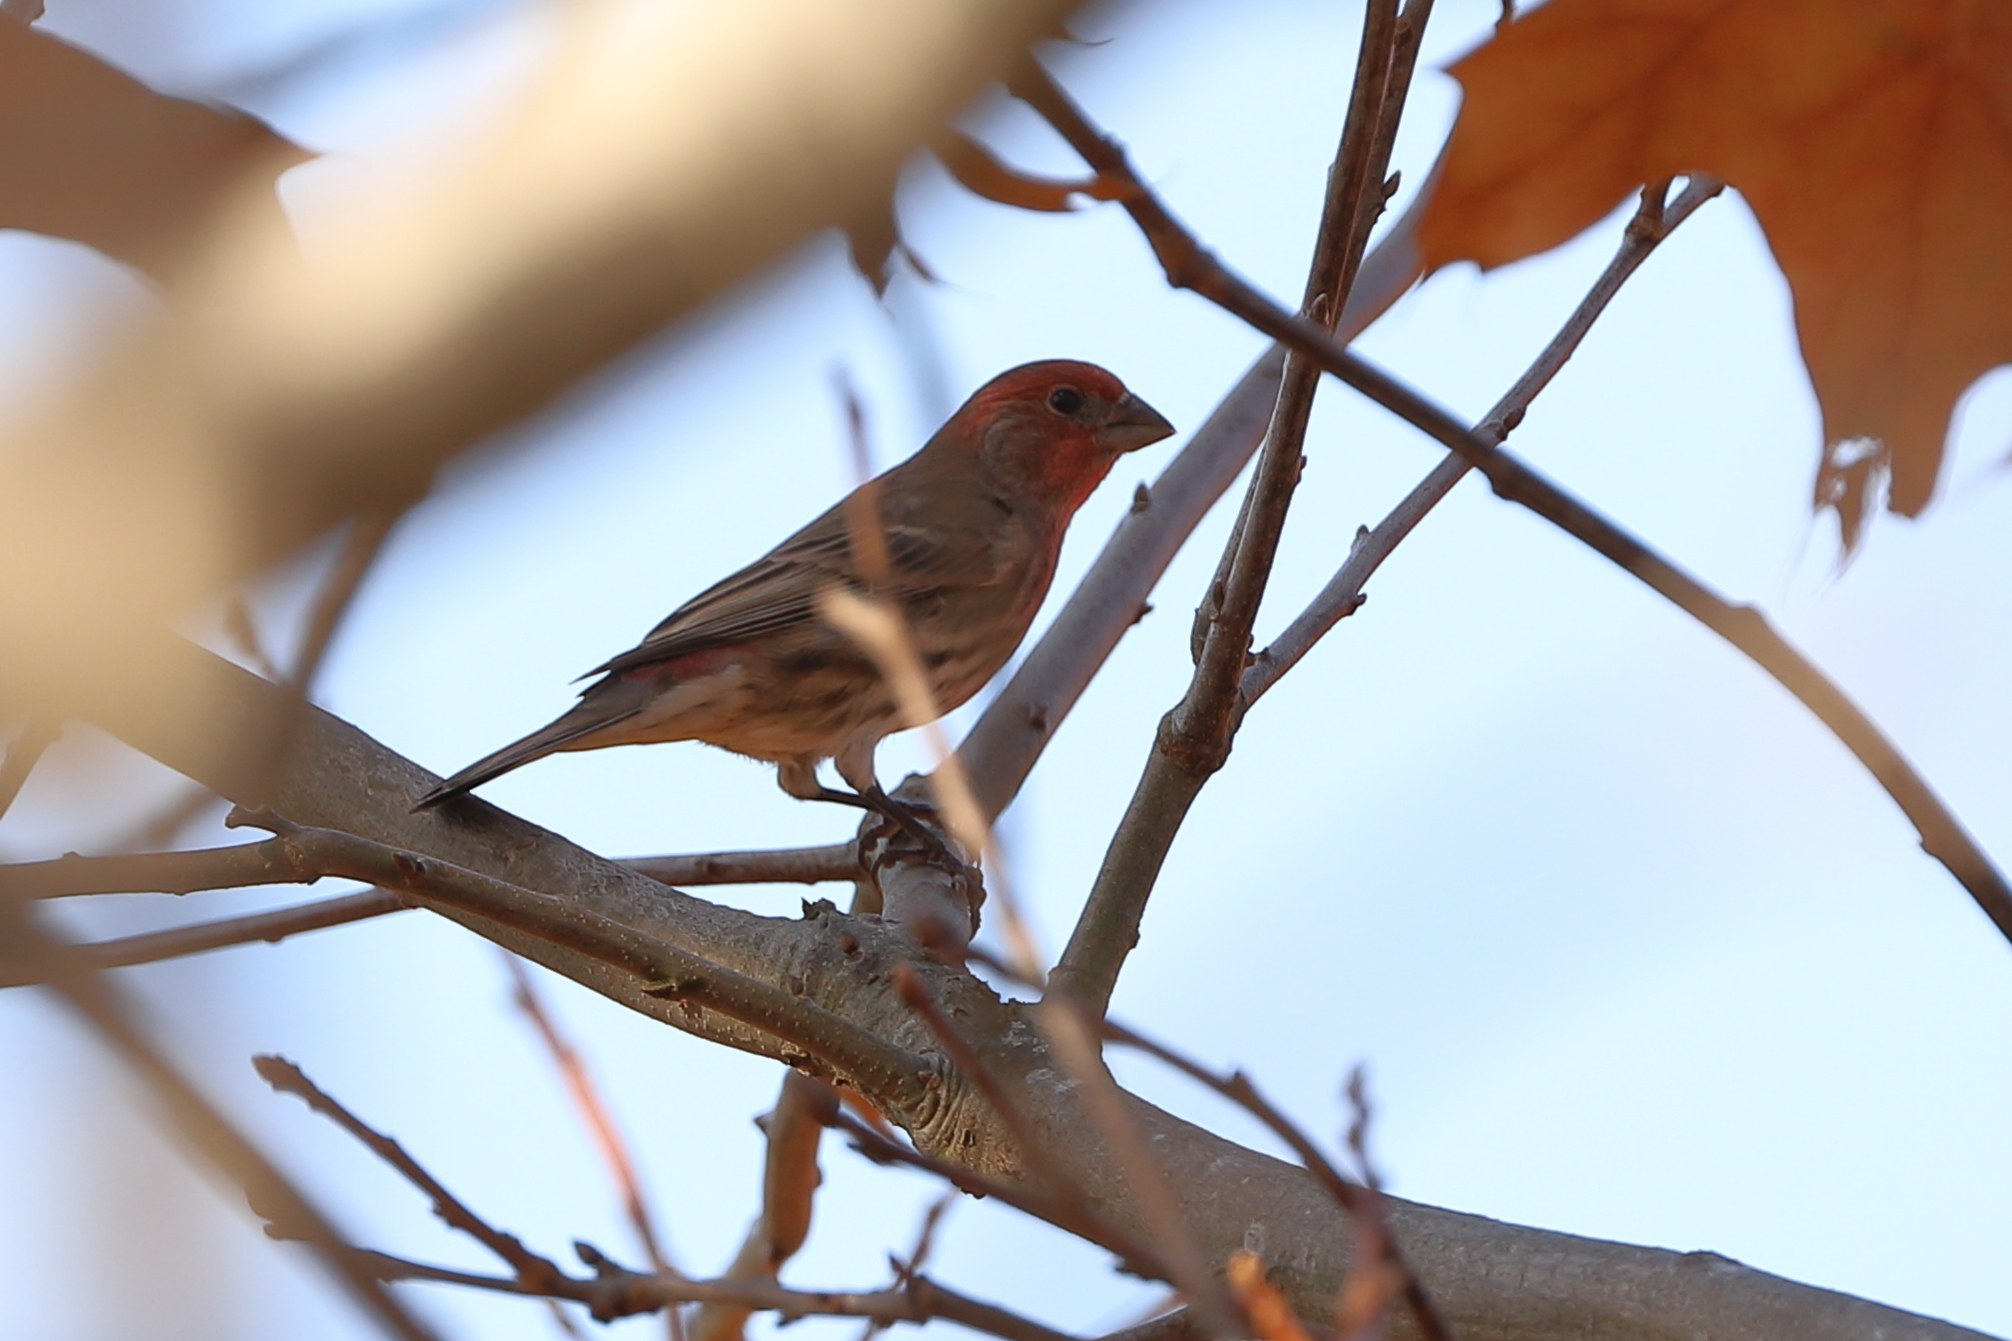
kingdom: Animalia
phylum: Chordata
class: Aves
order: Passeriformes
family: Fringillidae
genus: Haemorhous
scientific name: Haemorhous mexicanus
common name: House finch
